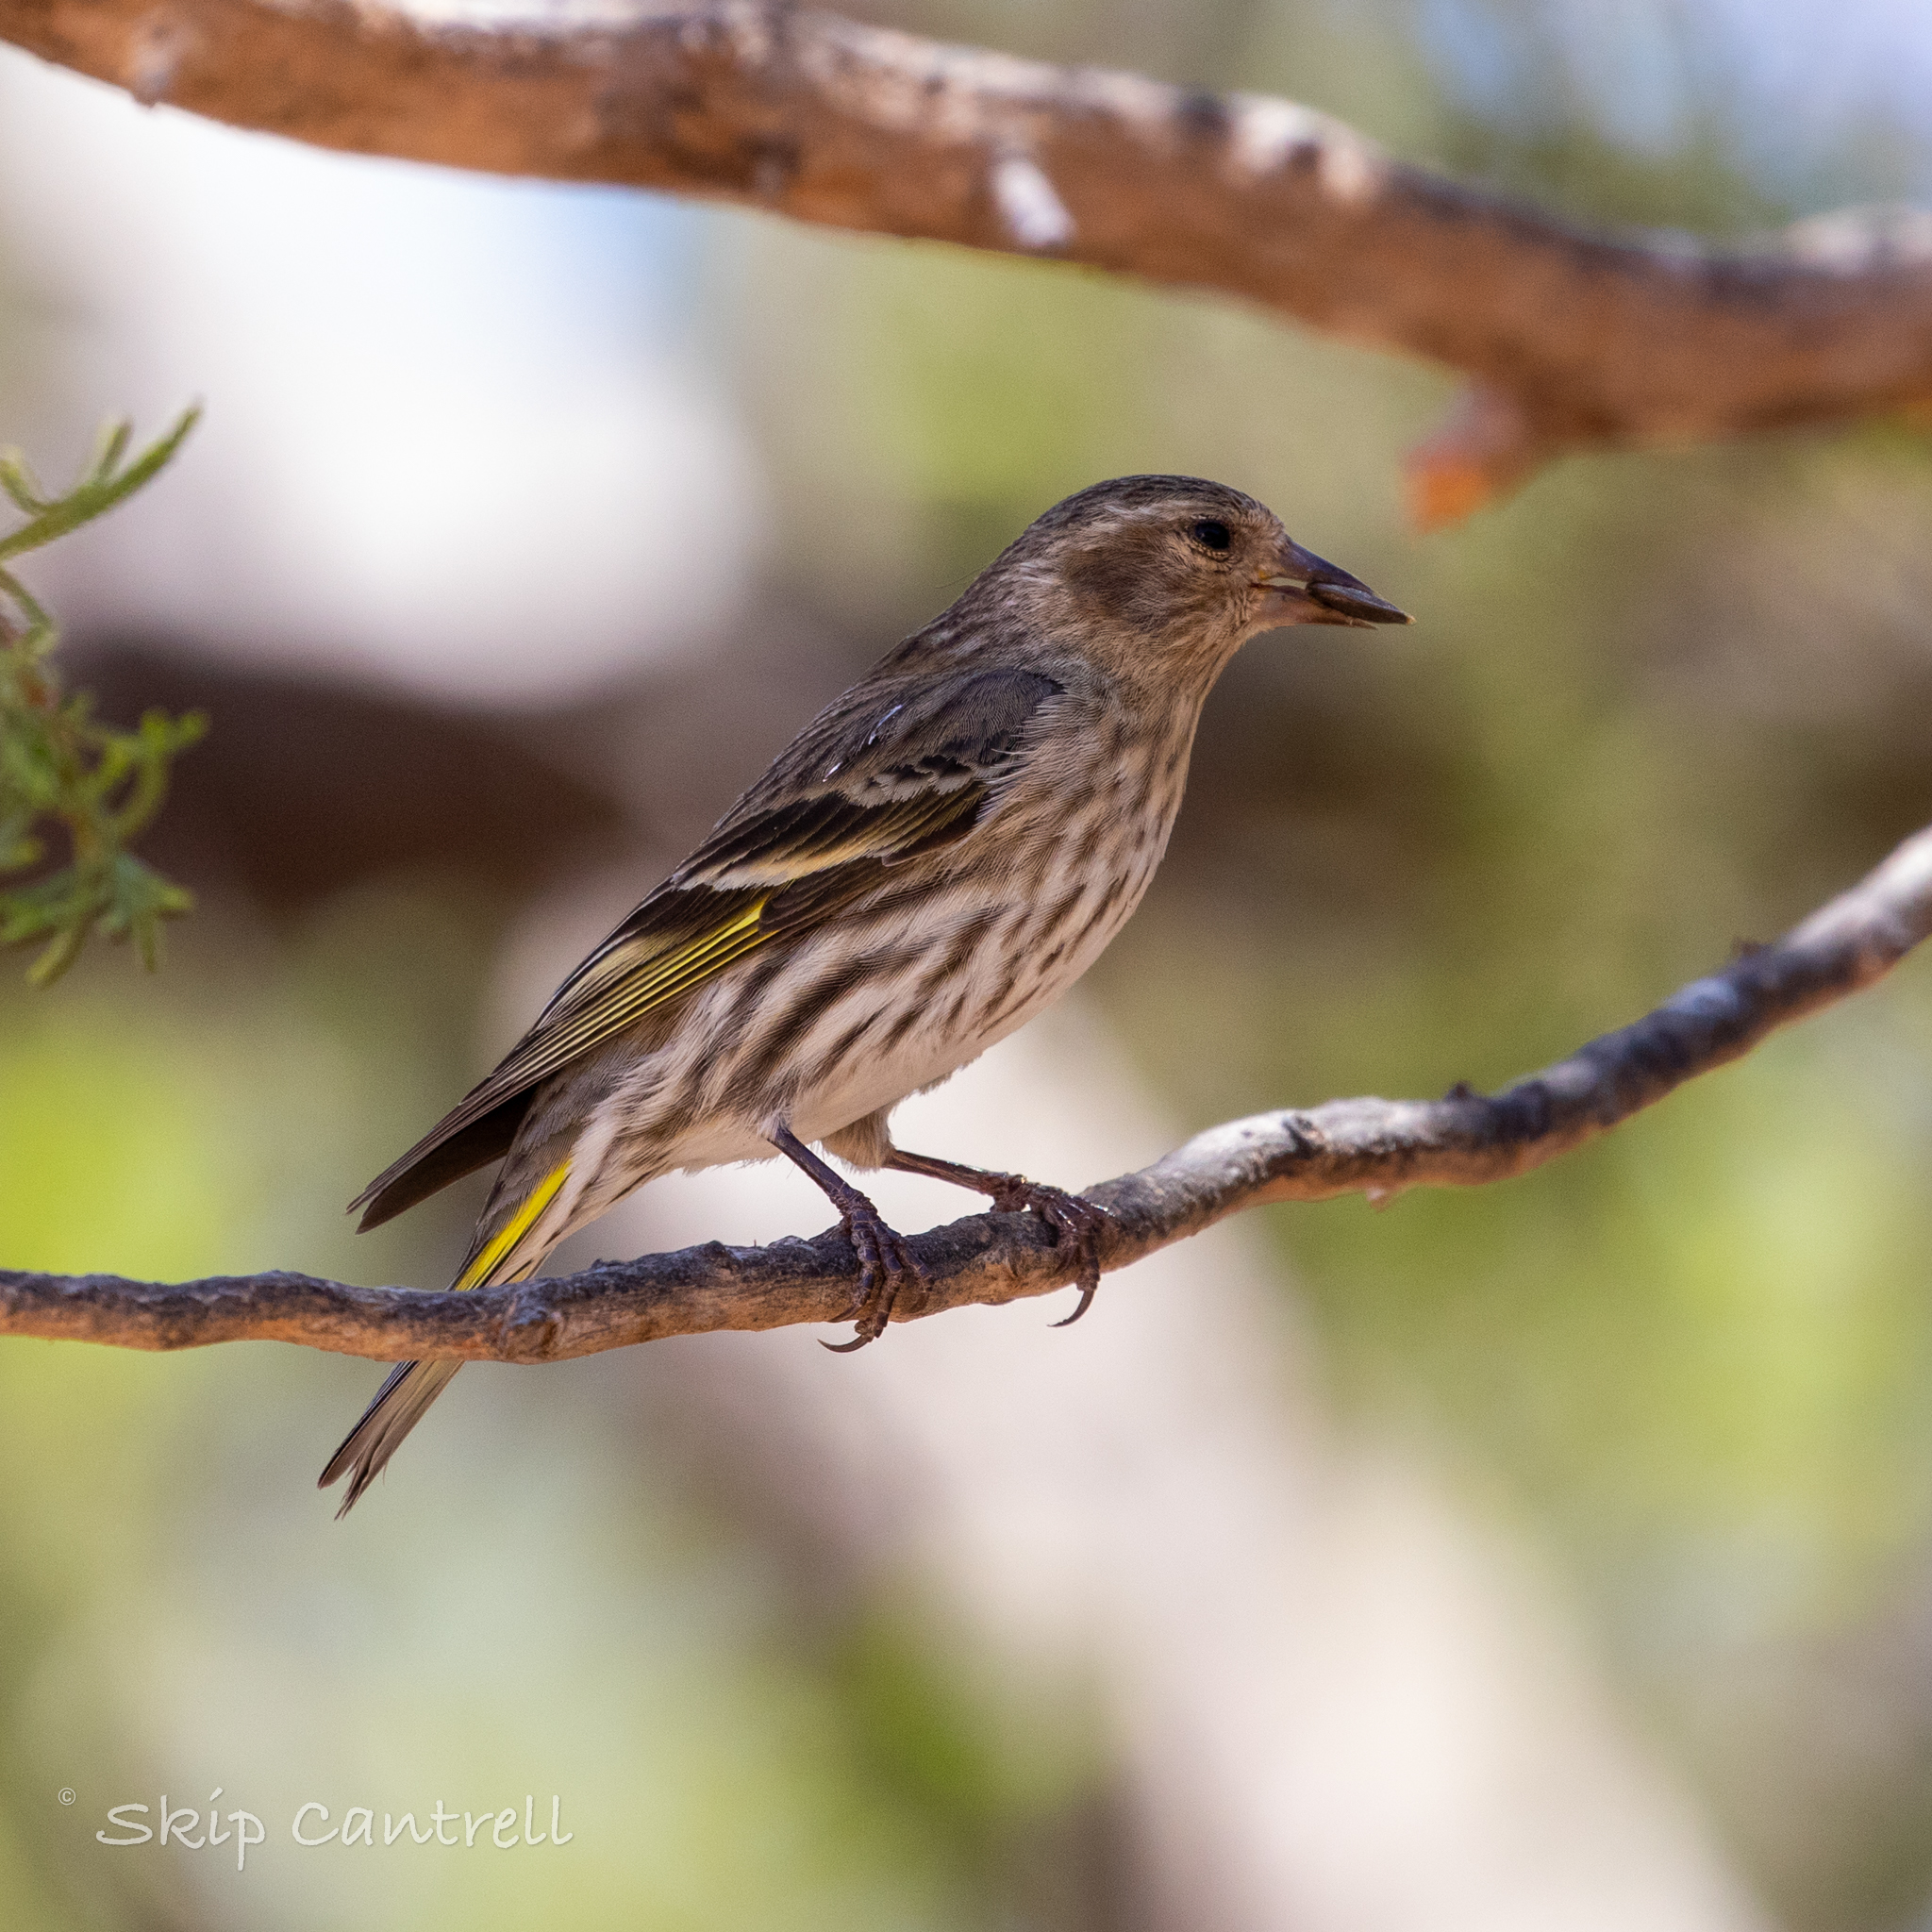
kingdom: Animalia
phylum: Chordata
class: Aves
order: Passeriformes
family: Fringillidae
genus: Spinus
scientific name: Spinus pinus
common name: Pine siskin
